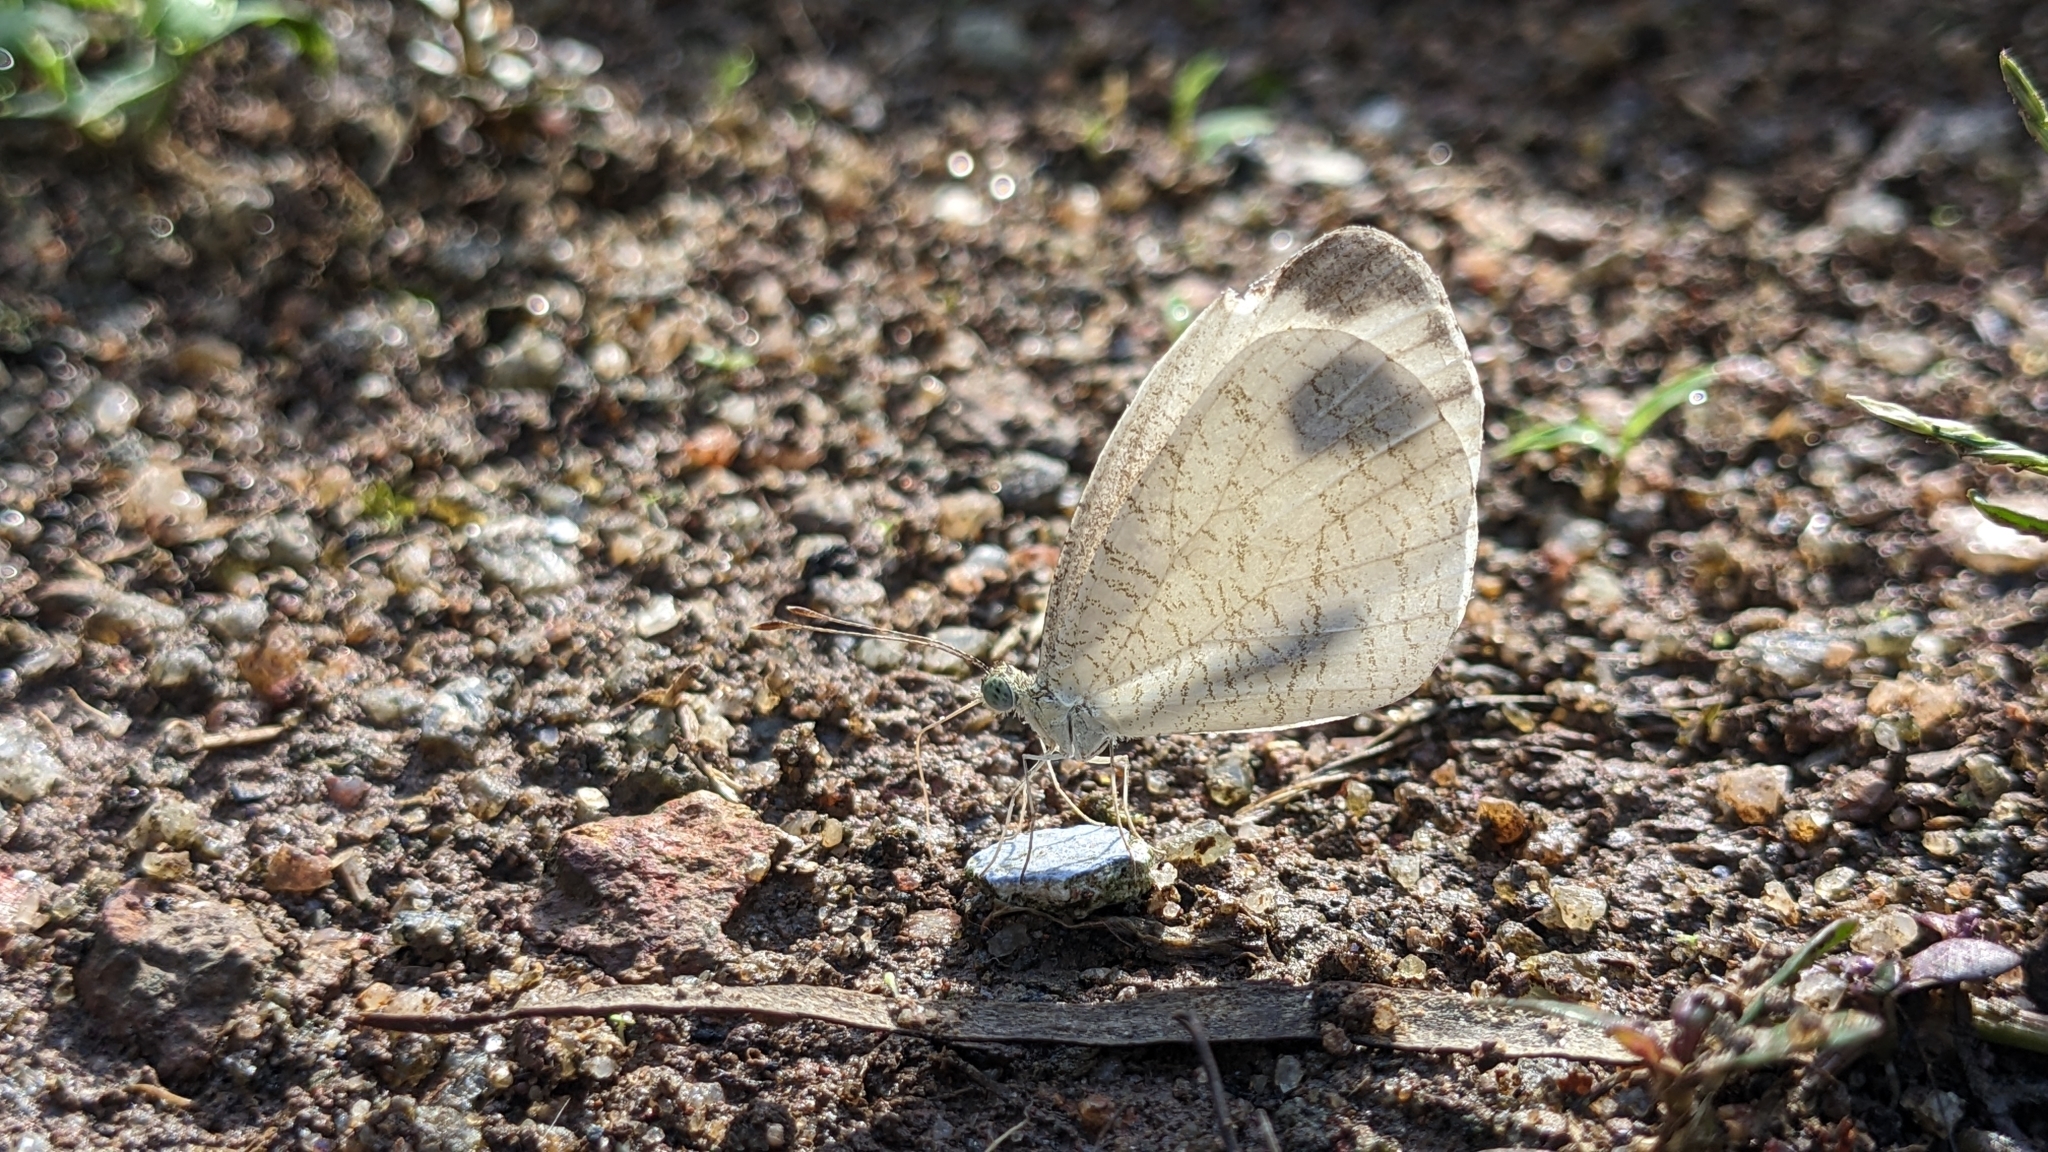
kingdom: Animalia
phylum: Arthropoda
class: Insecta
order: Lepidoptera
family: Pieridae
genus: Leptosia
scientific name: Leptosia nina
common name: Psyche
